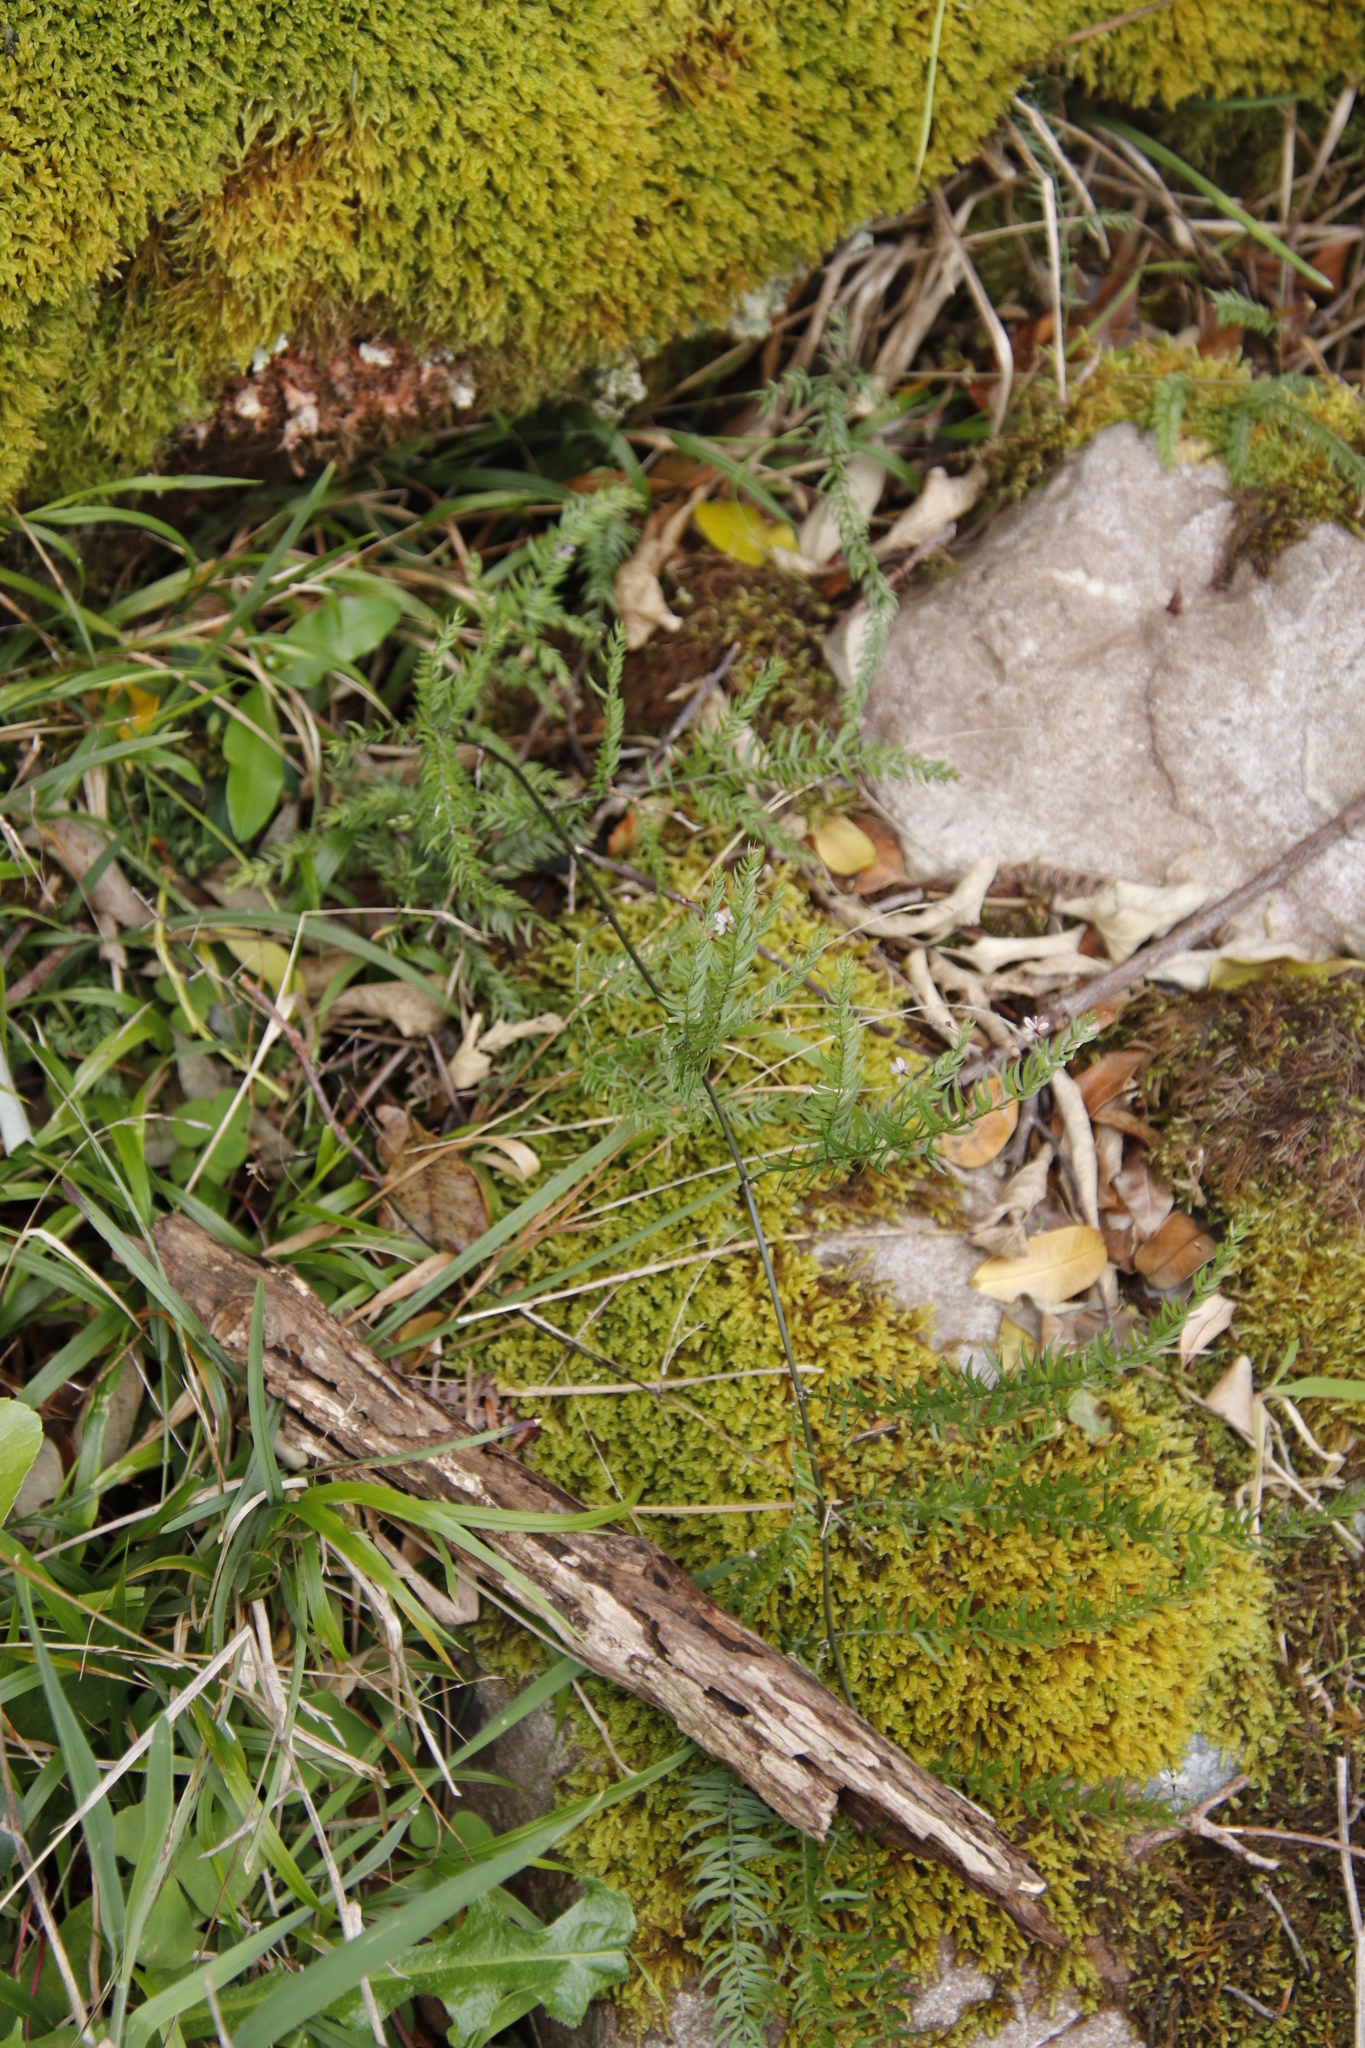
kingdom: Plantae
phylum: Tracheophyta
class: Liliopsida
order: Asparagales
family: Asparagaceae
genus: Asparagus
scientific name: Asparagus scandens
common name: Asparagus-fern
